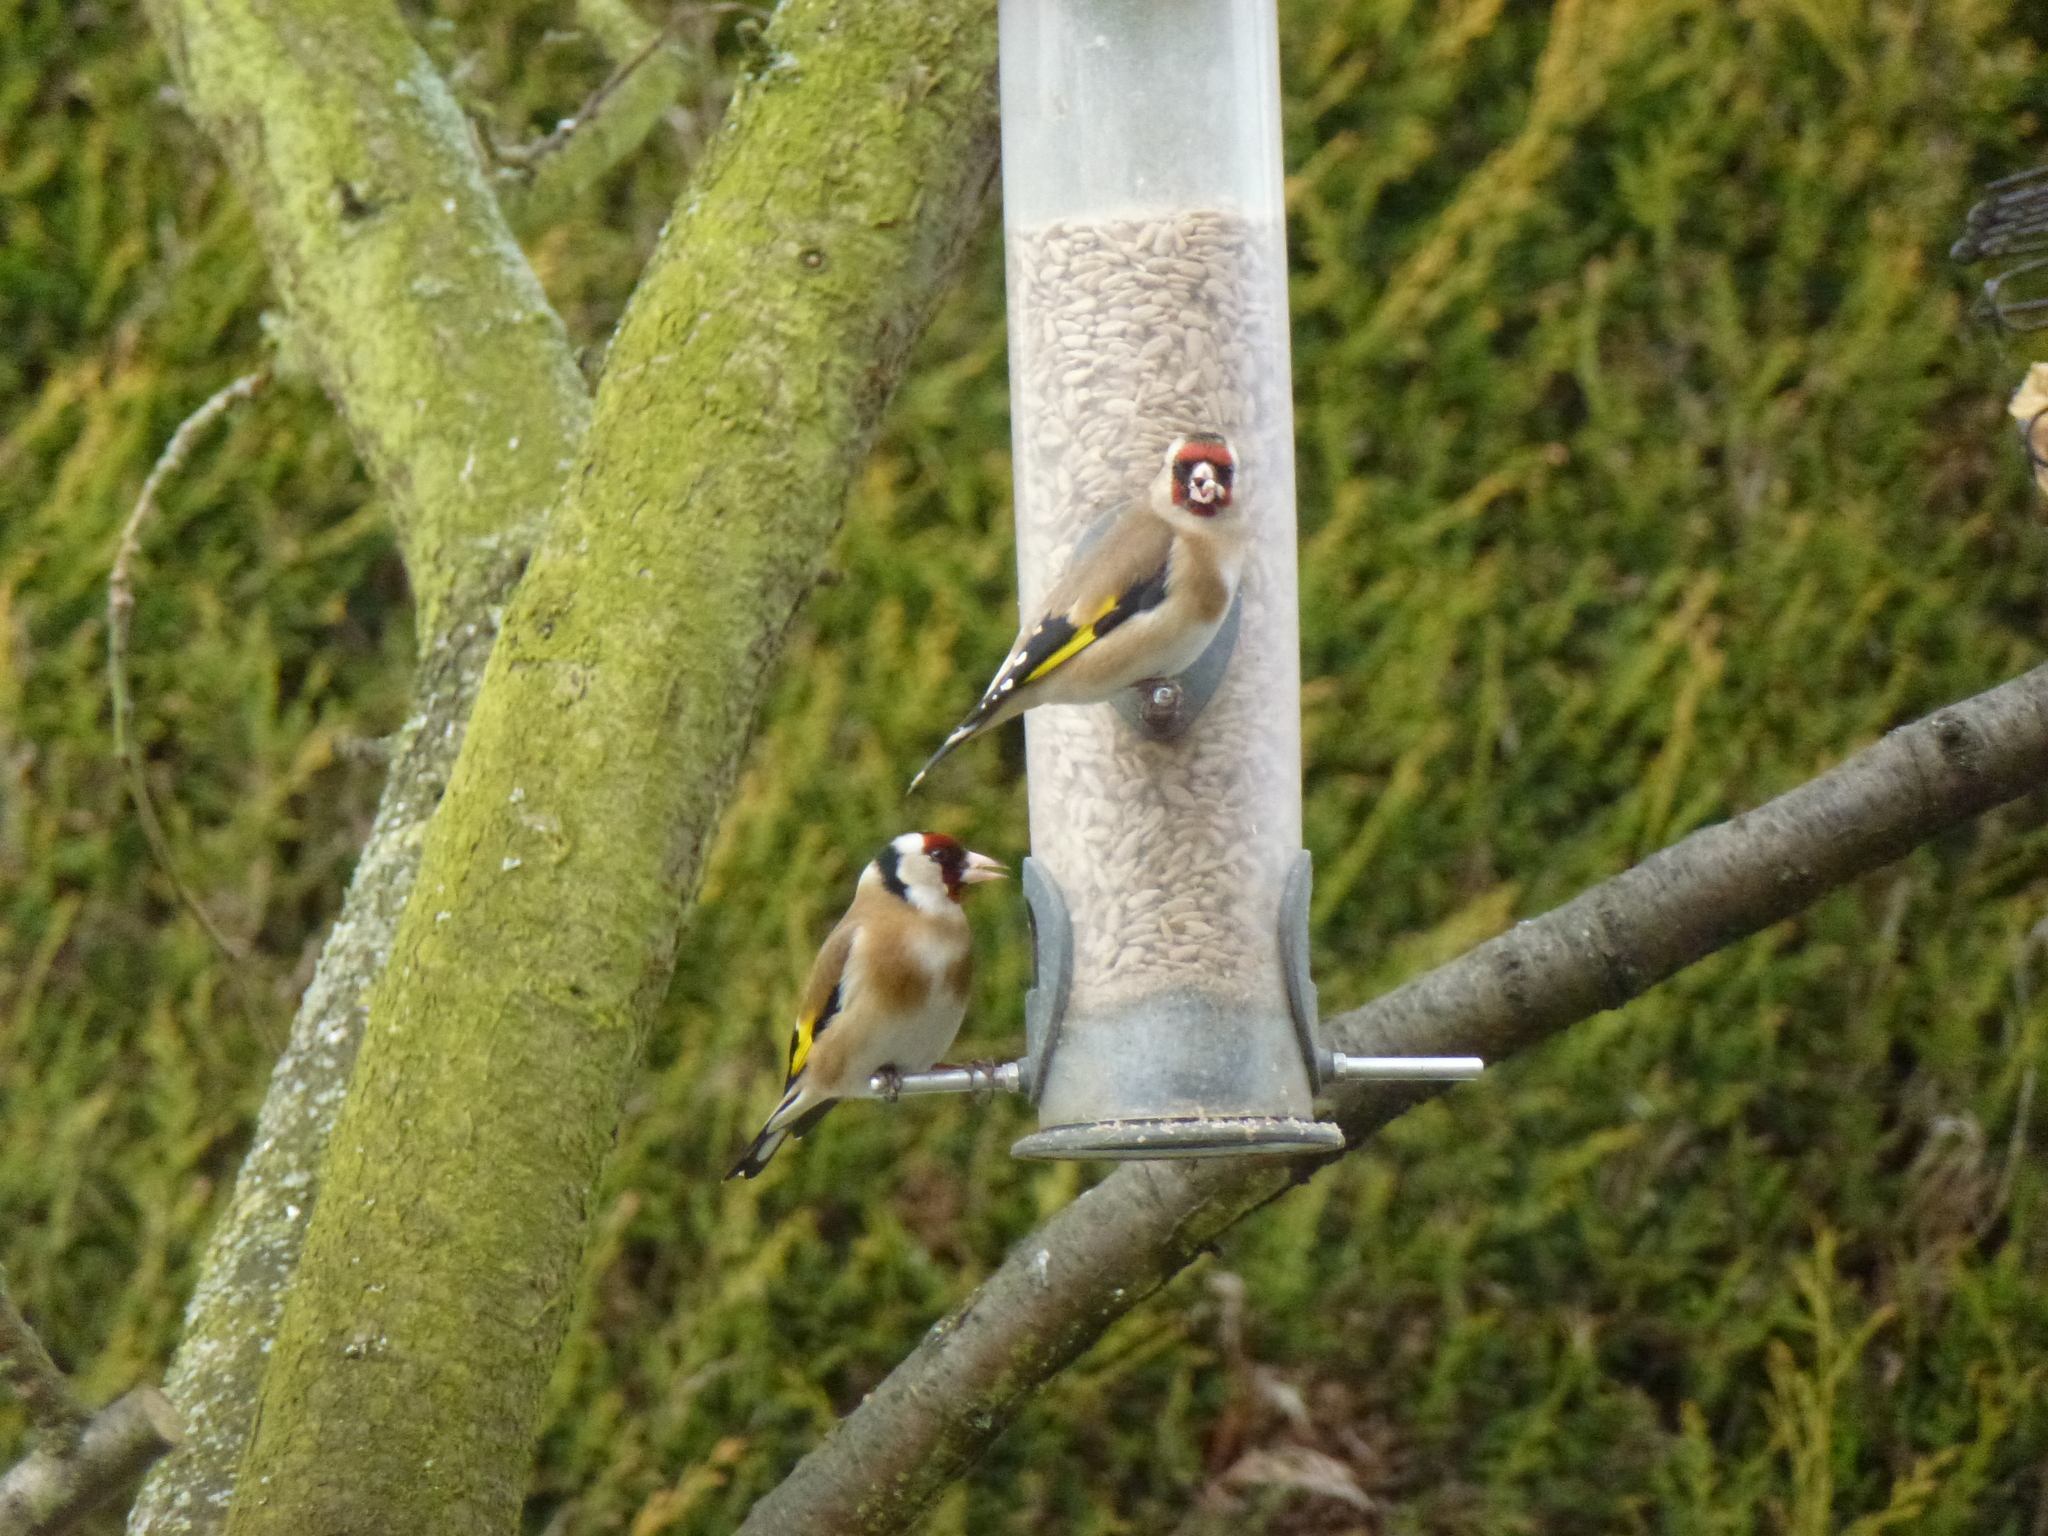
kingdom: Animalia
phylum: Chordata
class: Aves
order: Passeriformes
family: Fringillidae
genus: Carduelis
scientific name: Carduelis carduelis
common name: European goldfinch
